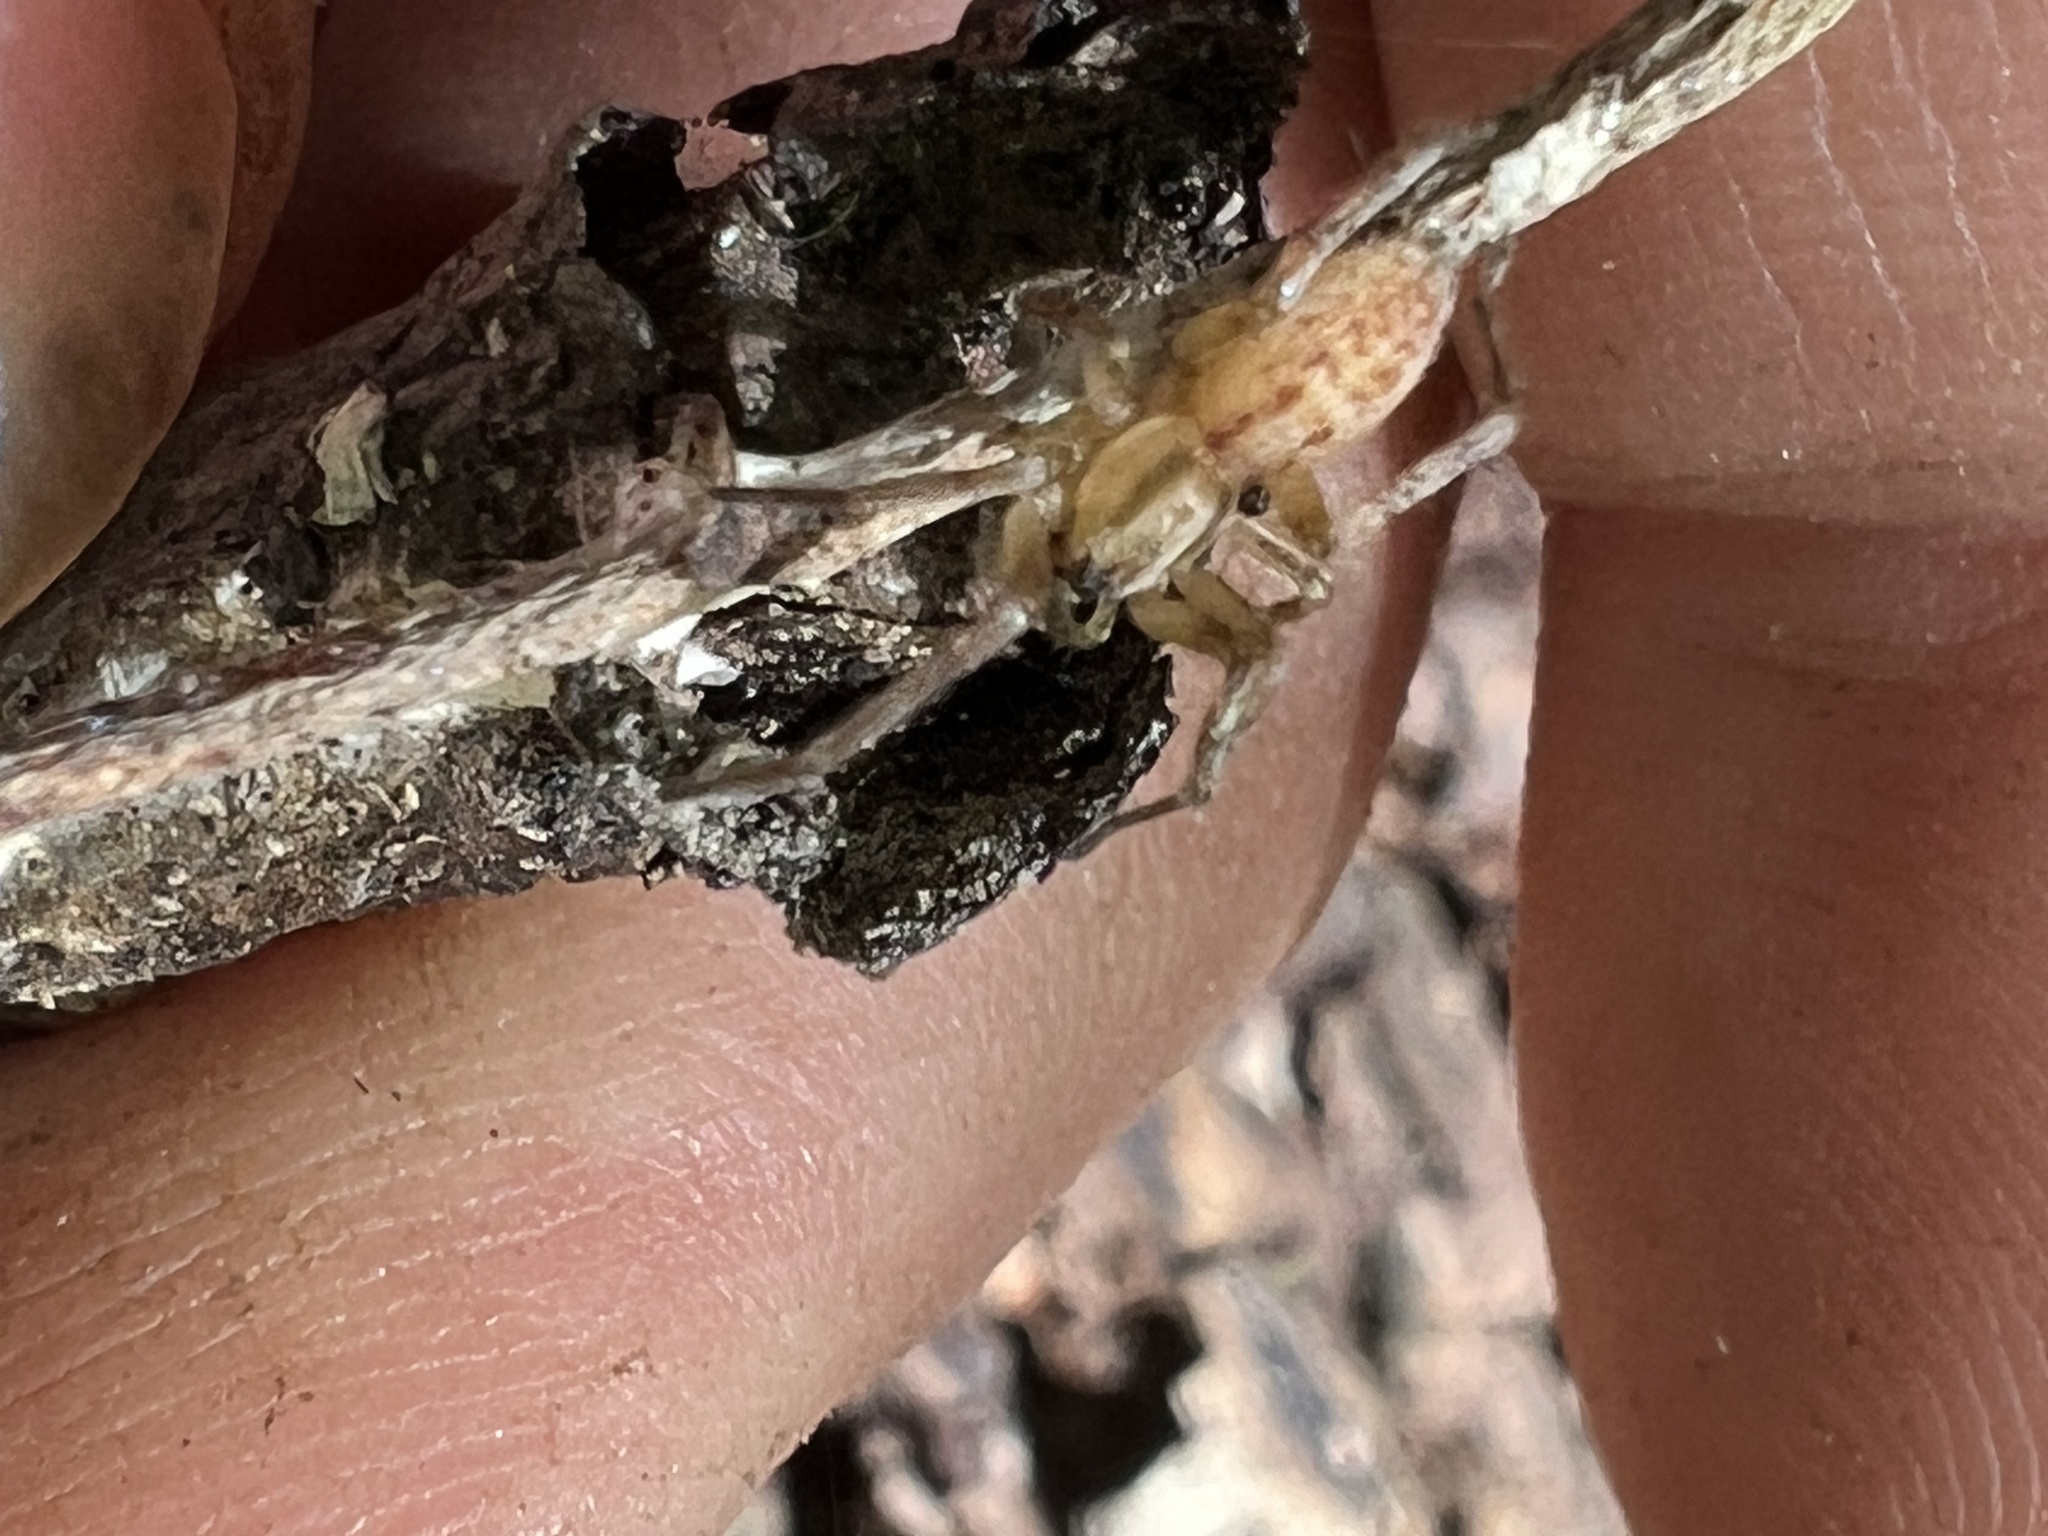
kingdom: Animalia
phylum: Arthropoda
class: Arachnida
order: Araneae
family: Anyphaenidae
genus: Hibana
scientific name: Hibana gracilis
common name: Garden ghost spider
